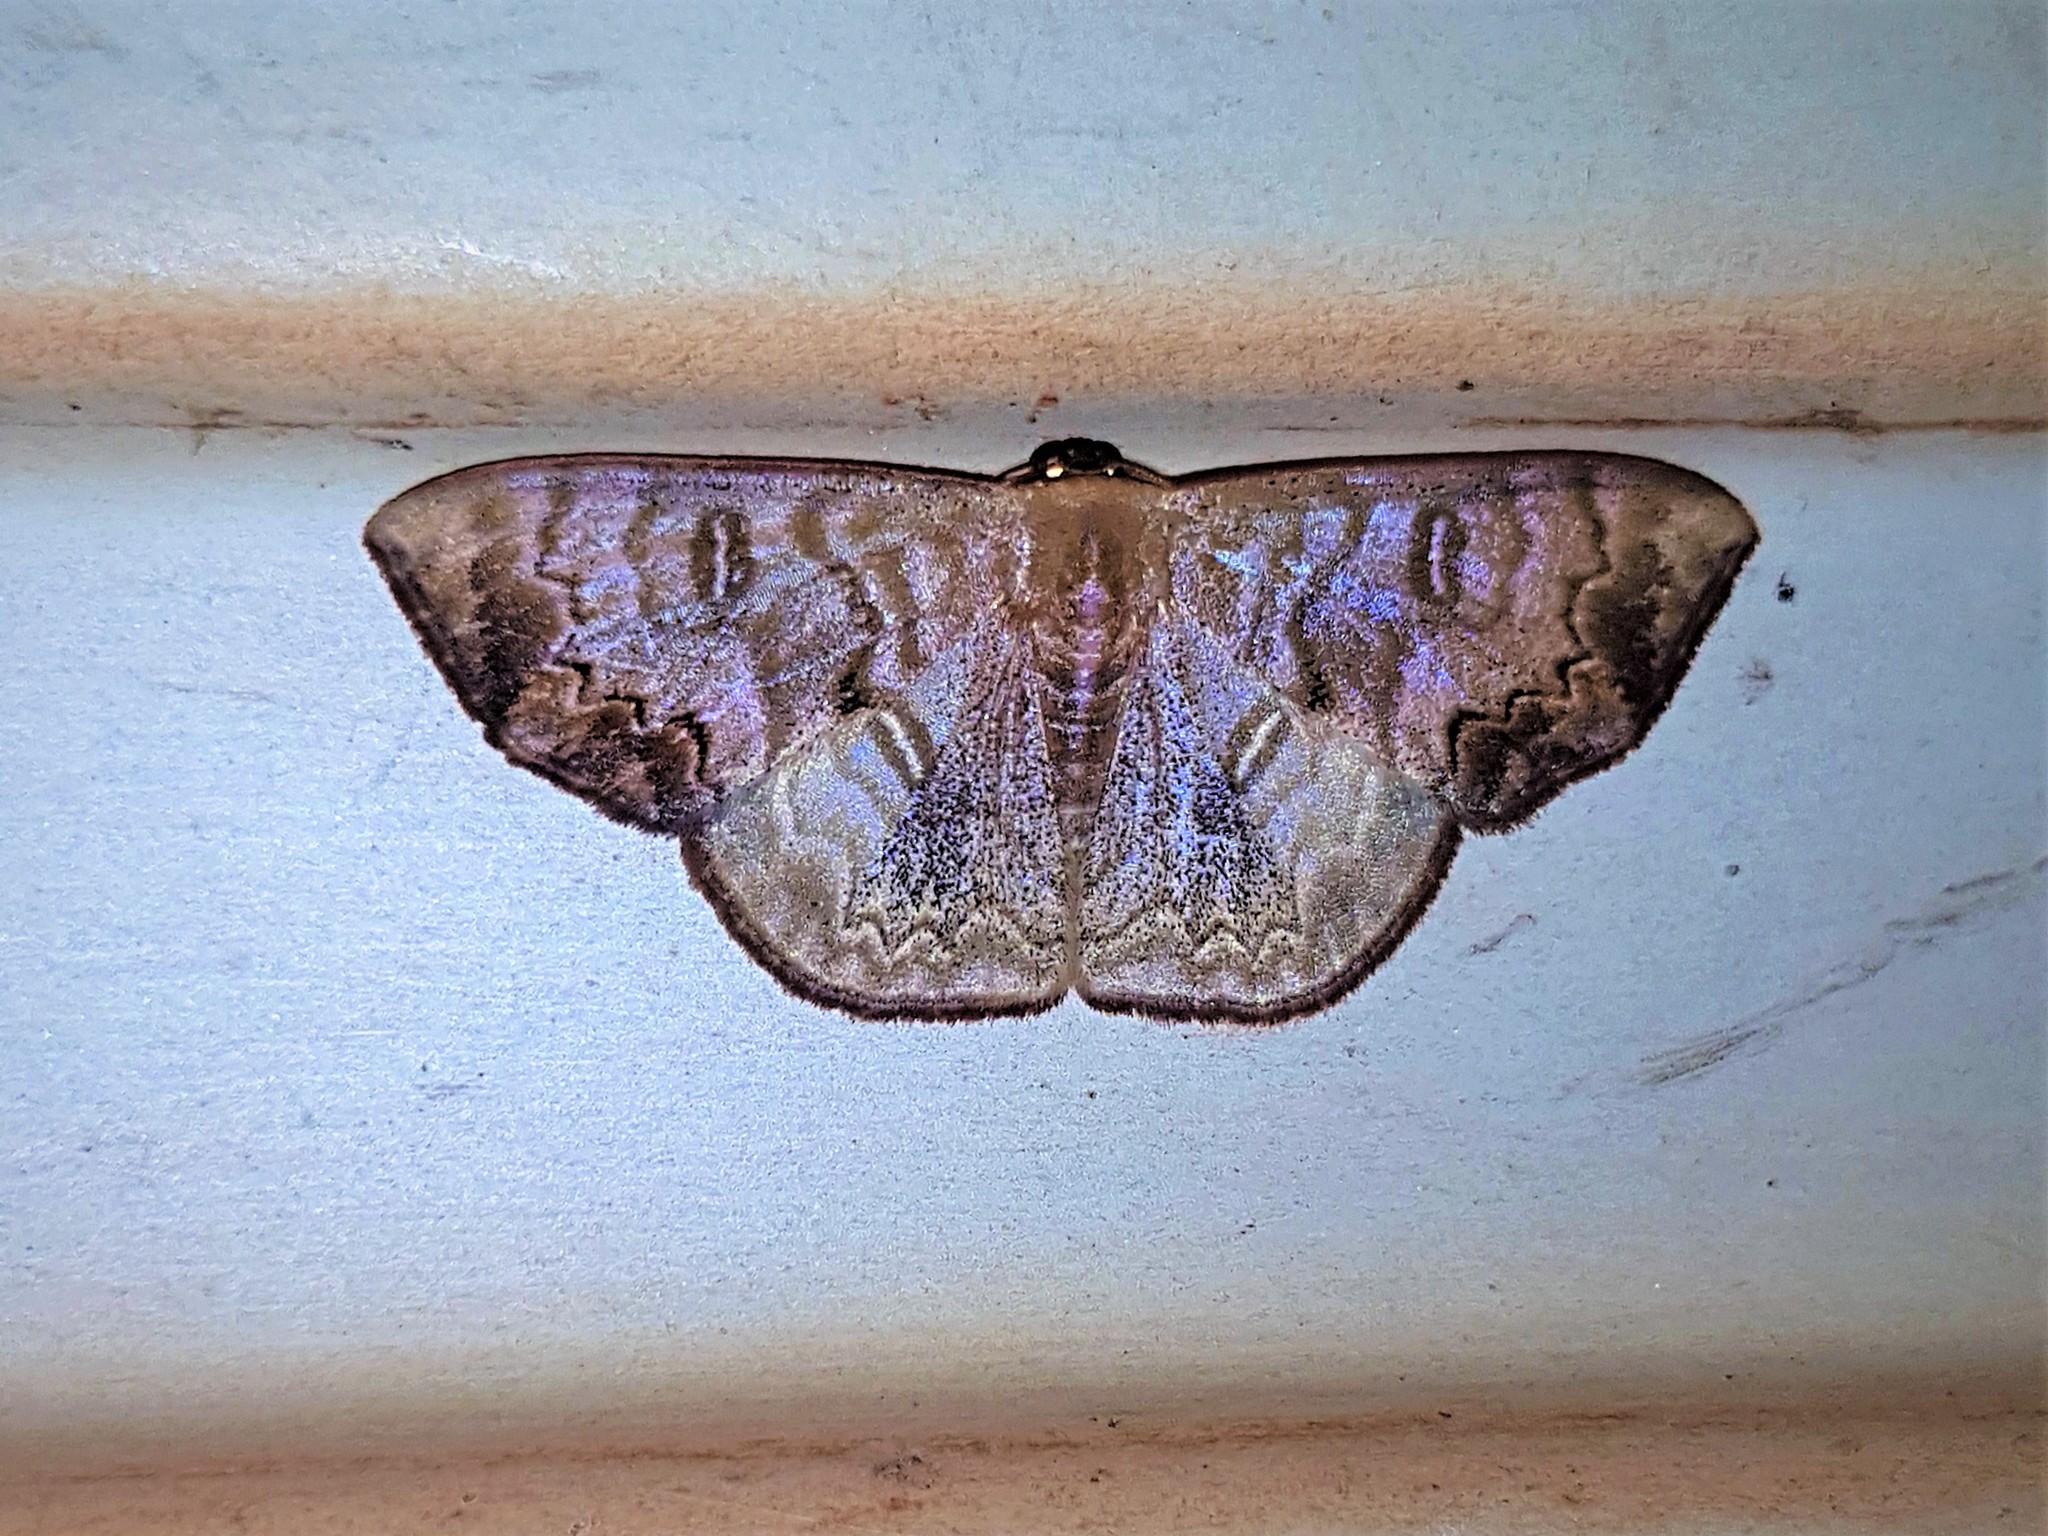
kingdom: Animalia
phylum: Arthropoda
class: Insecta
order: Lepidoptera
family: Geometridae
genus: Semaeopus
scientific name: Semaeopus scripturata
